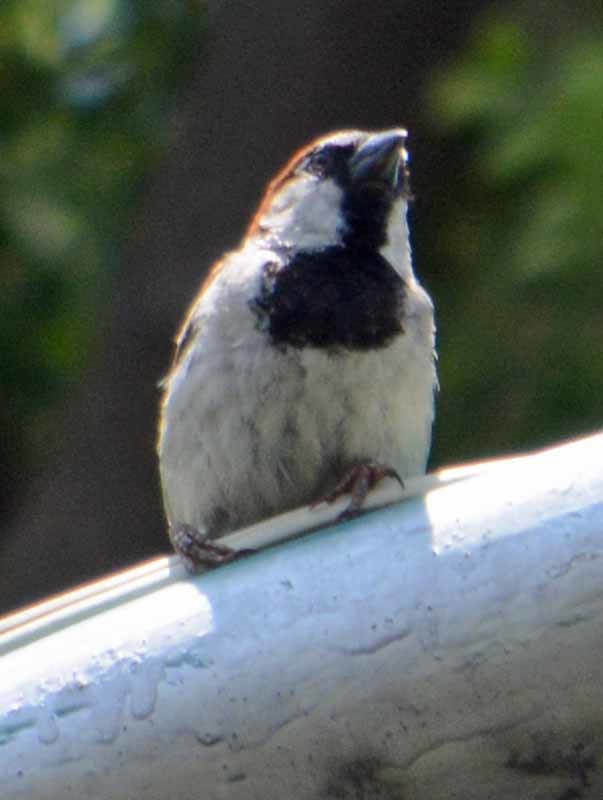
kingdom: Animalia
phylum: Chordata
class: Aves
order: Passeriformes
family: Passeridae
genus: Passer
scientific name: Passer domesticus
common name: House sparrow
